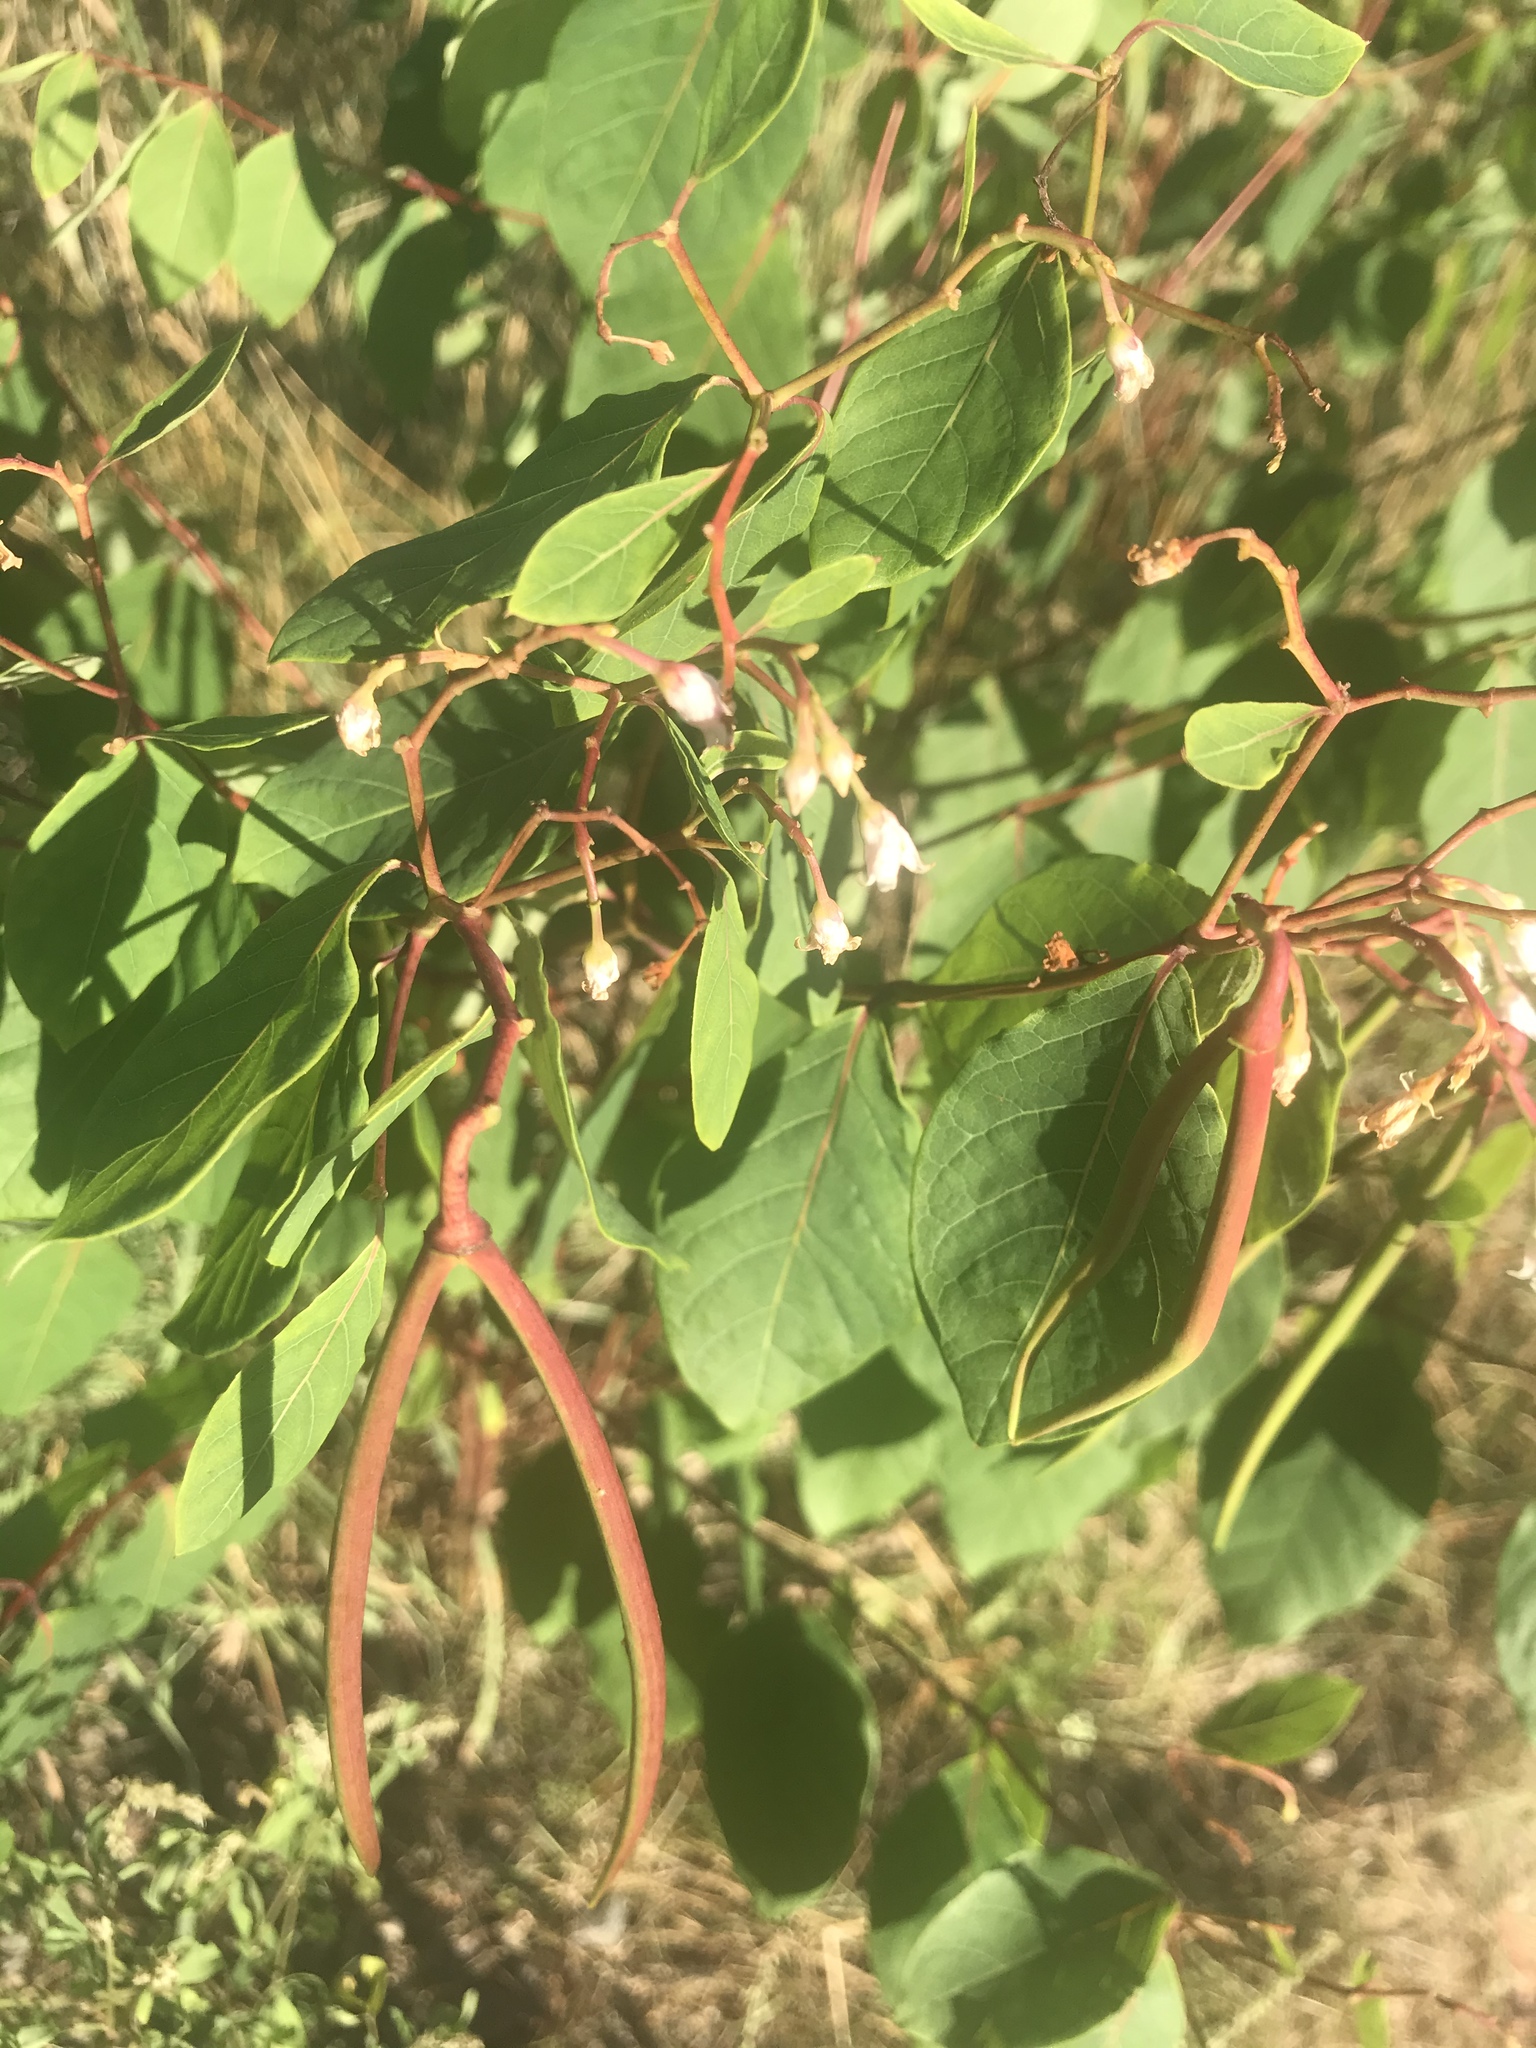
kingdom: Plantae
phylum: Tracheophyta
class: Magnoliopsida
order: Gentianales
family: Apocynaceae
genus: Apocynum
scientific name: Apocynum androsaemifolium
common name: Spreading dogbane
